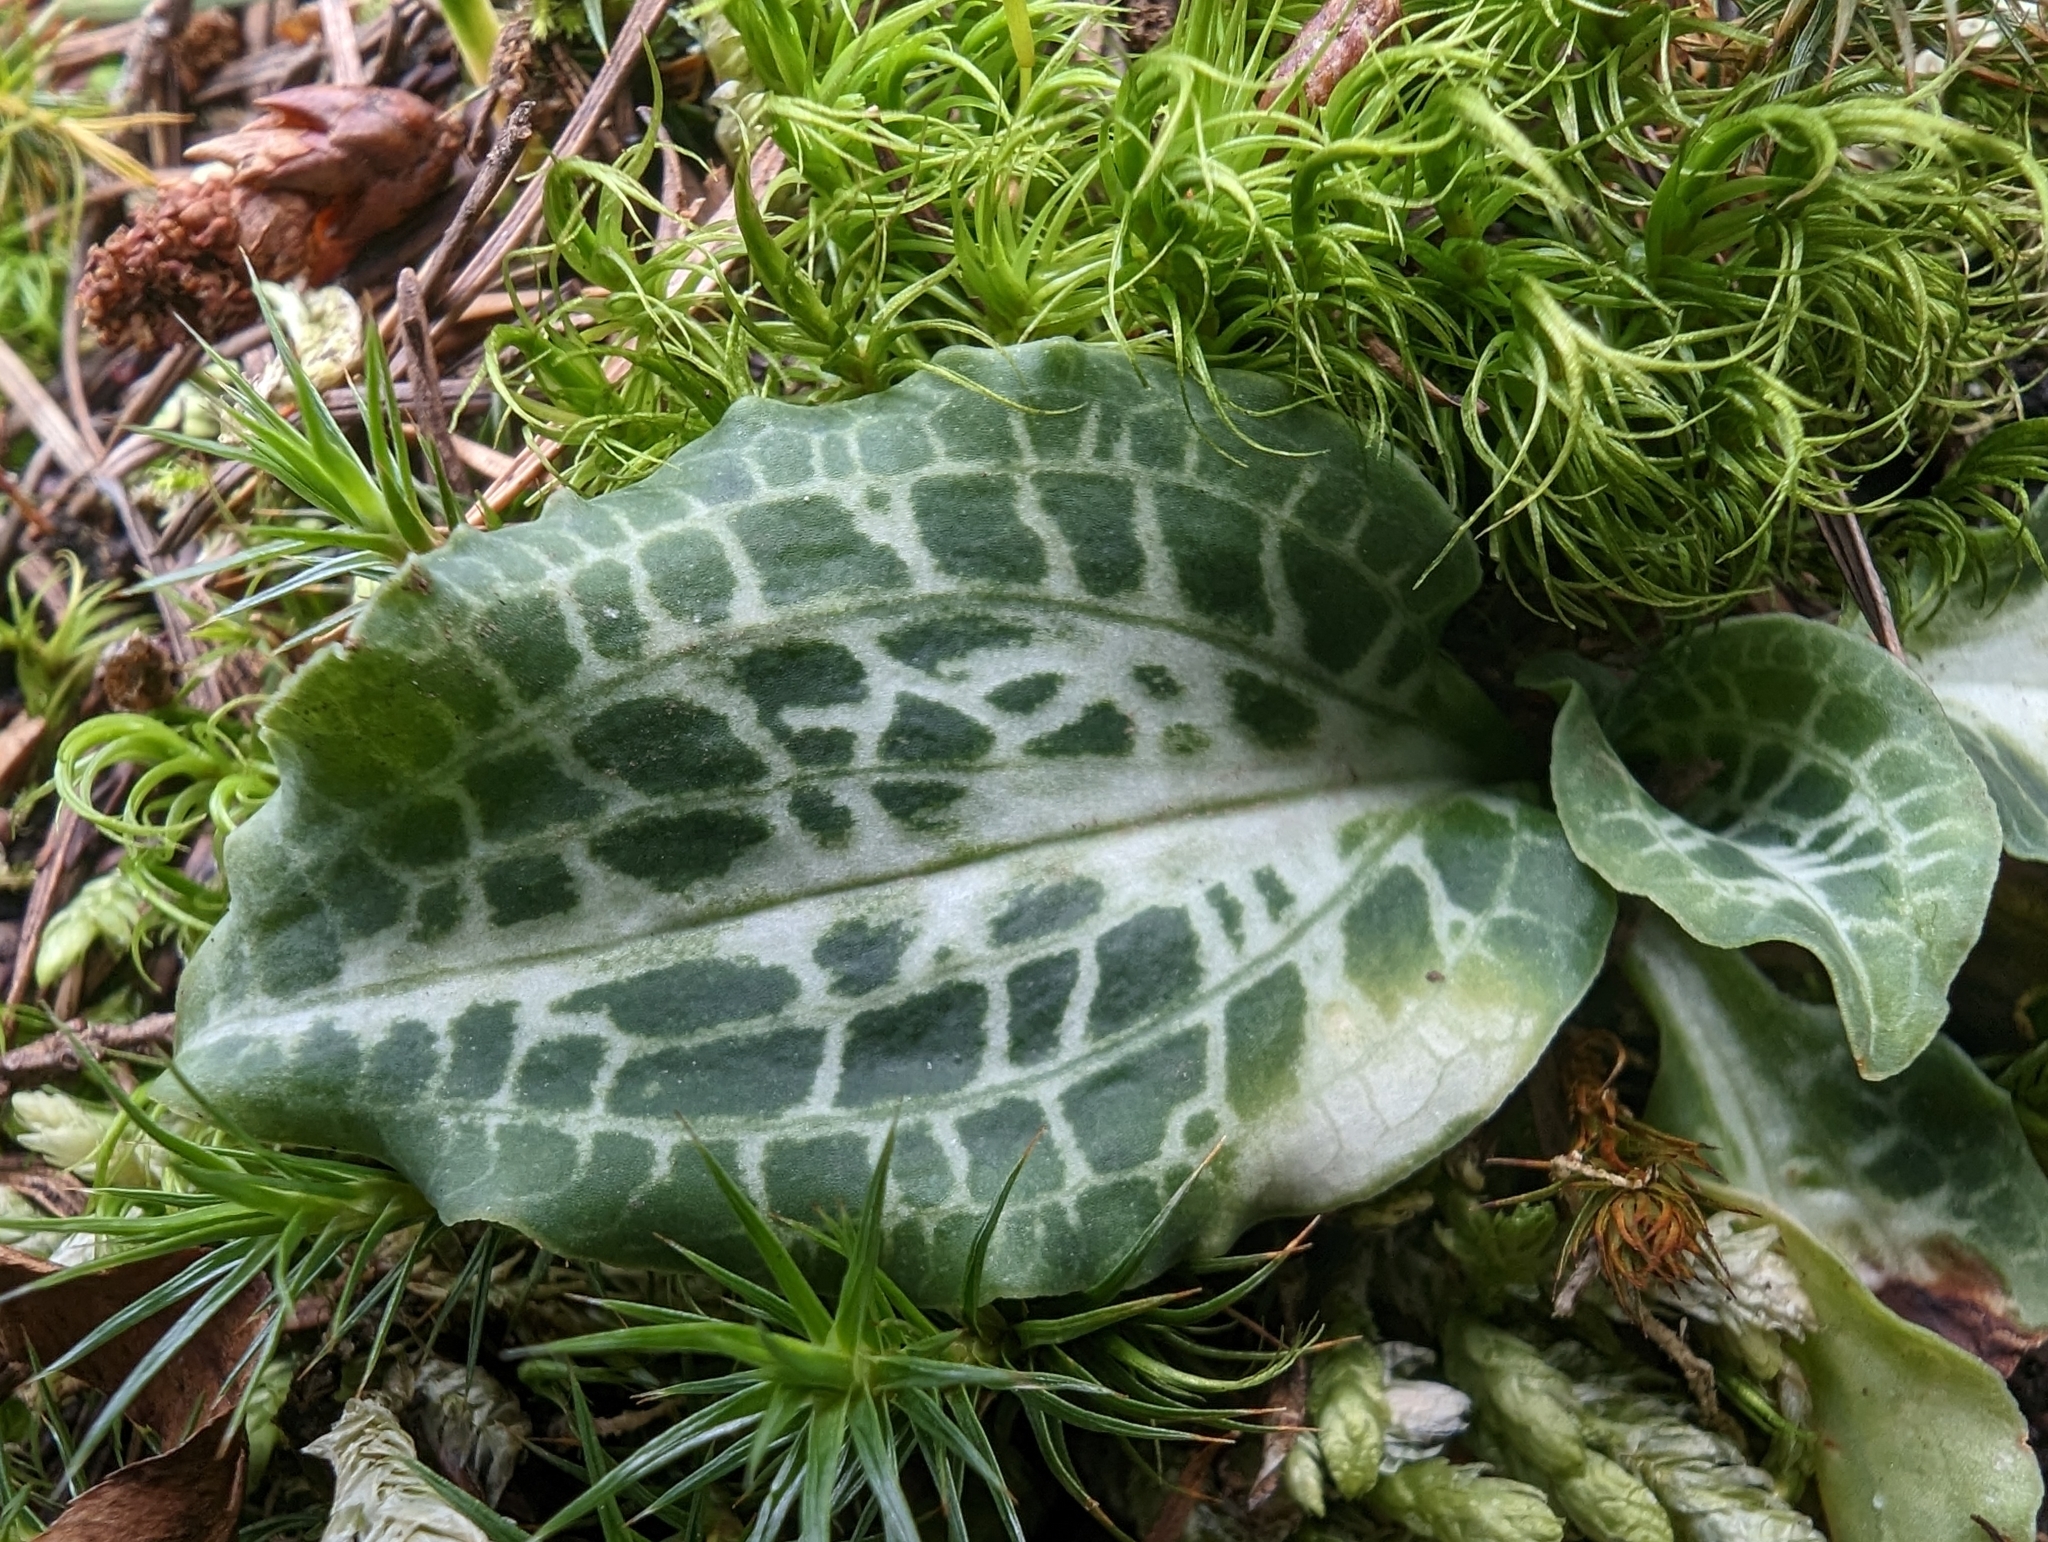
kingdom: Plantae
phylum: Tracheophyta
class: Liliopsida
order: Asparagales
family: Orchidaceae
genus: Goodyera
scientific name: Goodyera oblongifolia
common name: Giant rattlesnake-plantain
